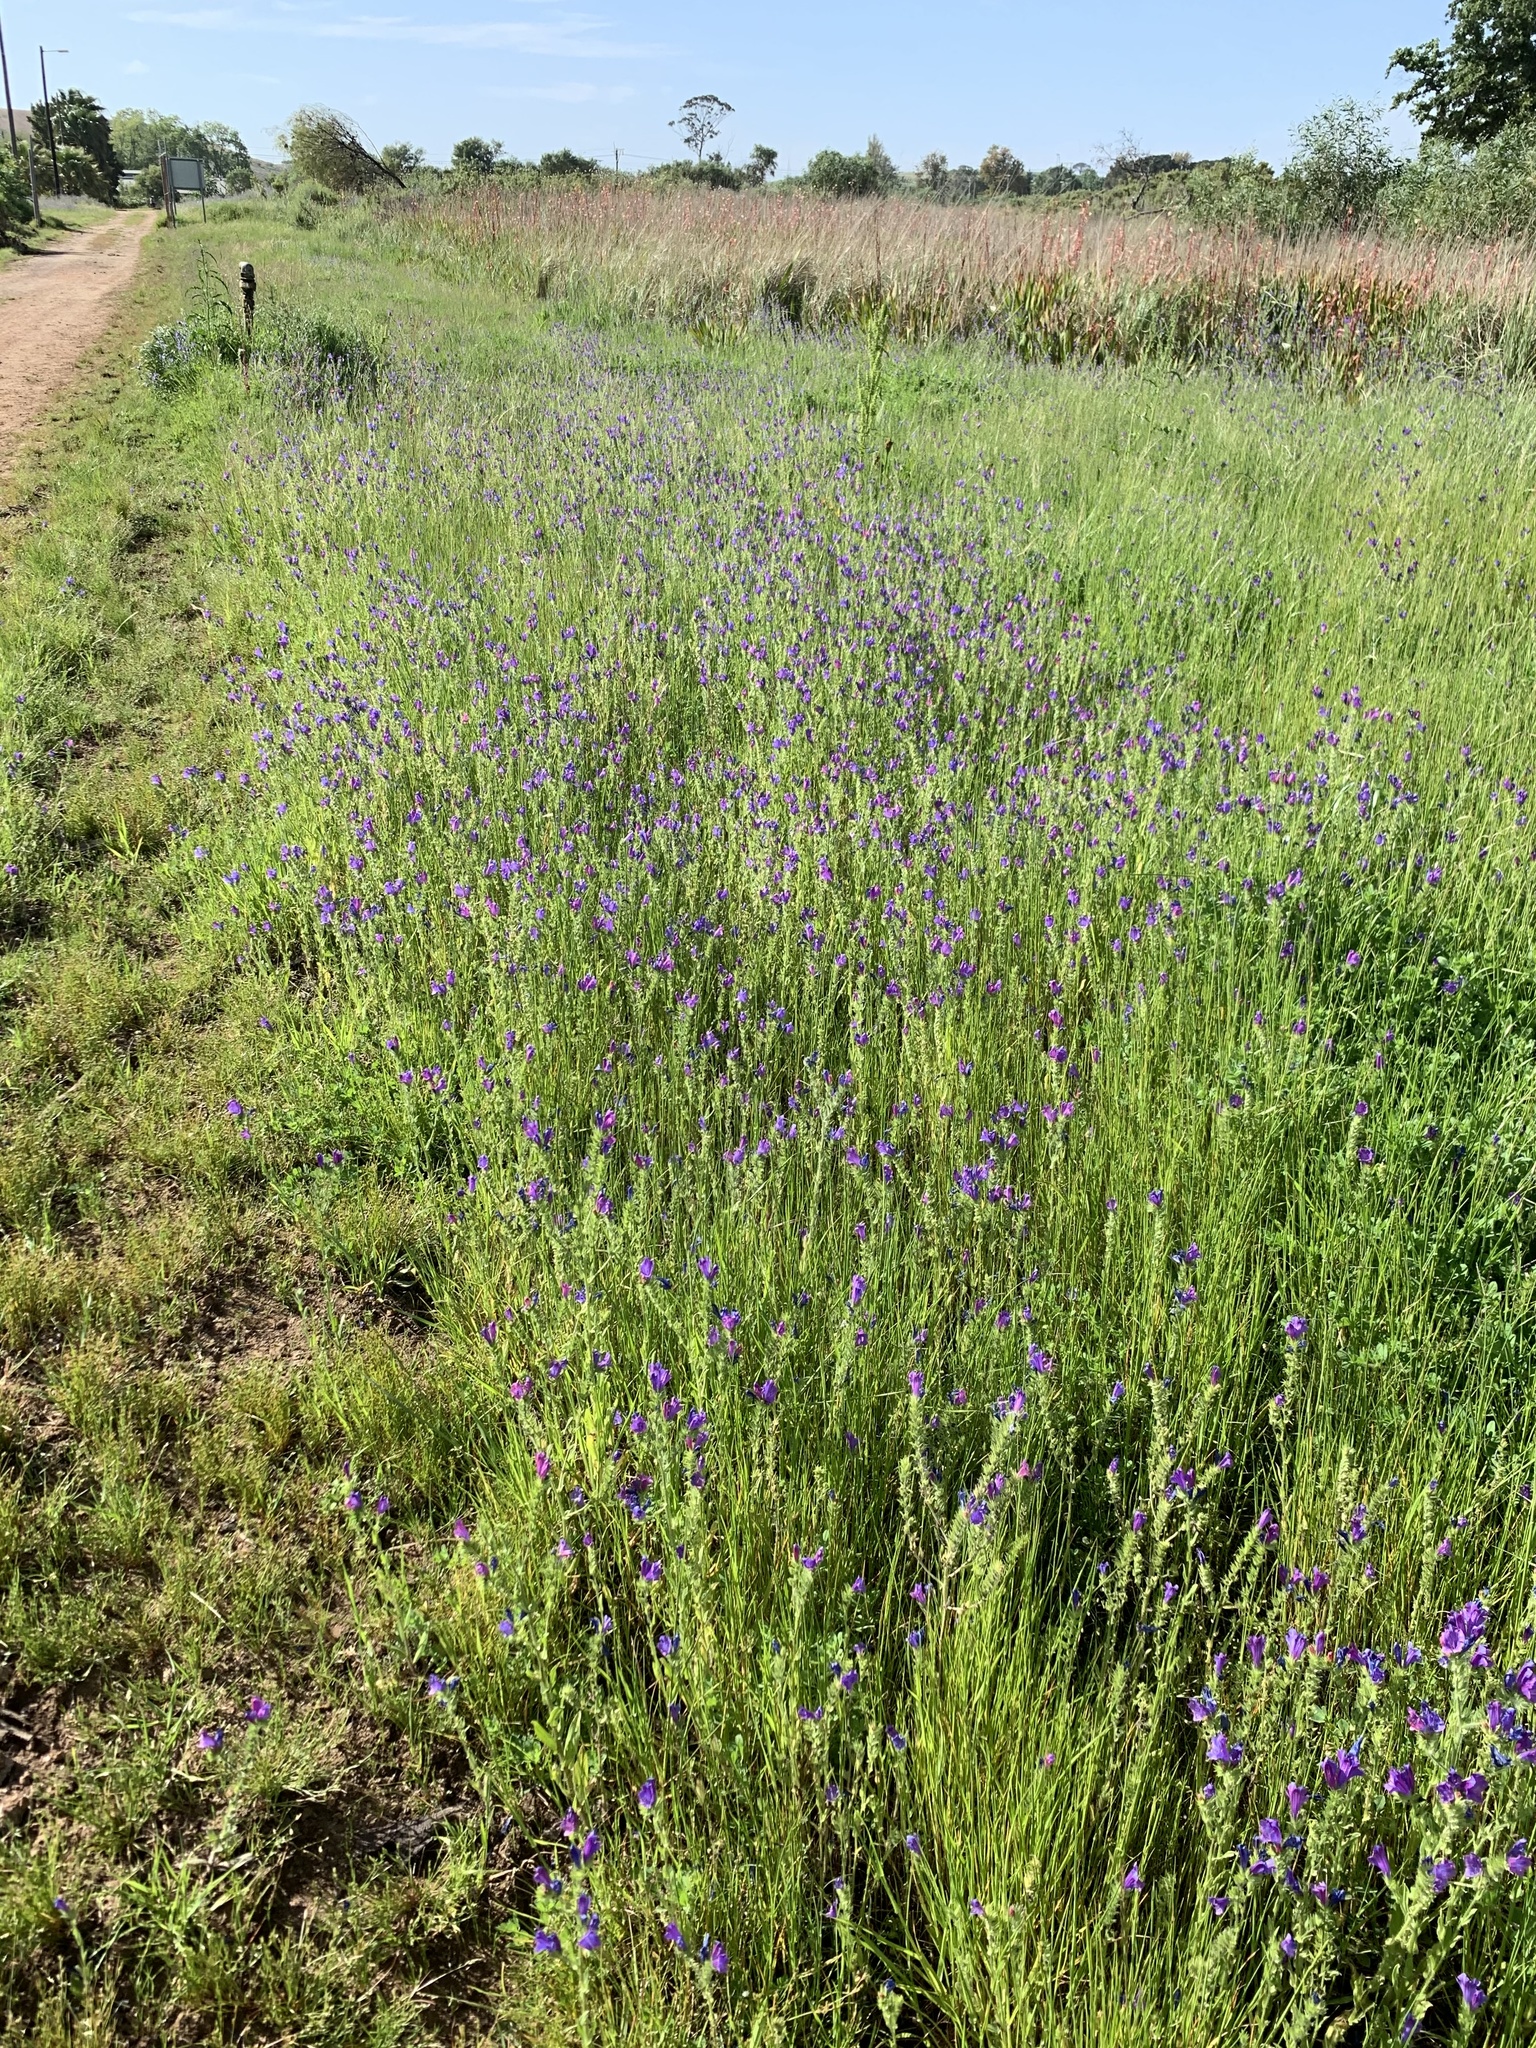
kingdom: Plantae
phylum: Tracheophyta
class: Magnoliopsida
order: Boraginales
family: Boraginaceae
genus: Echium
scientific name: Echium plantagineum
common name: Purple viper's-bugloss
